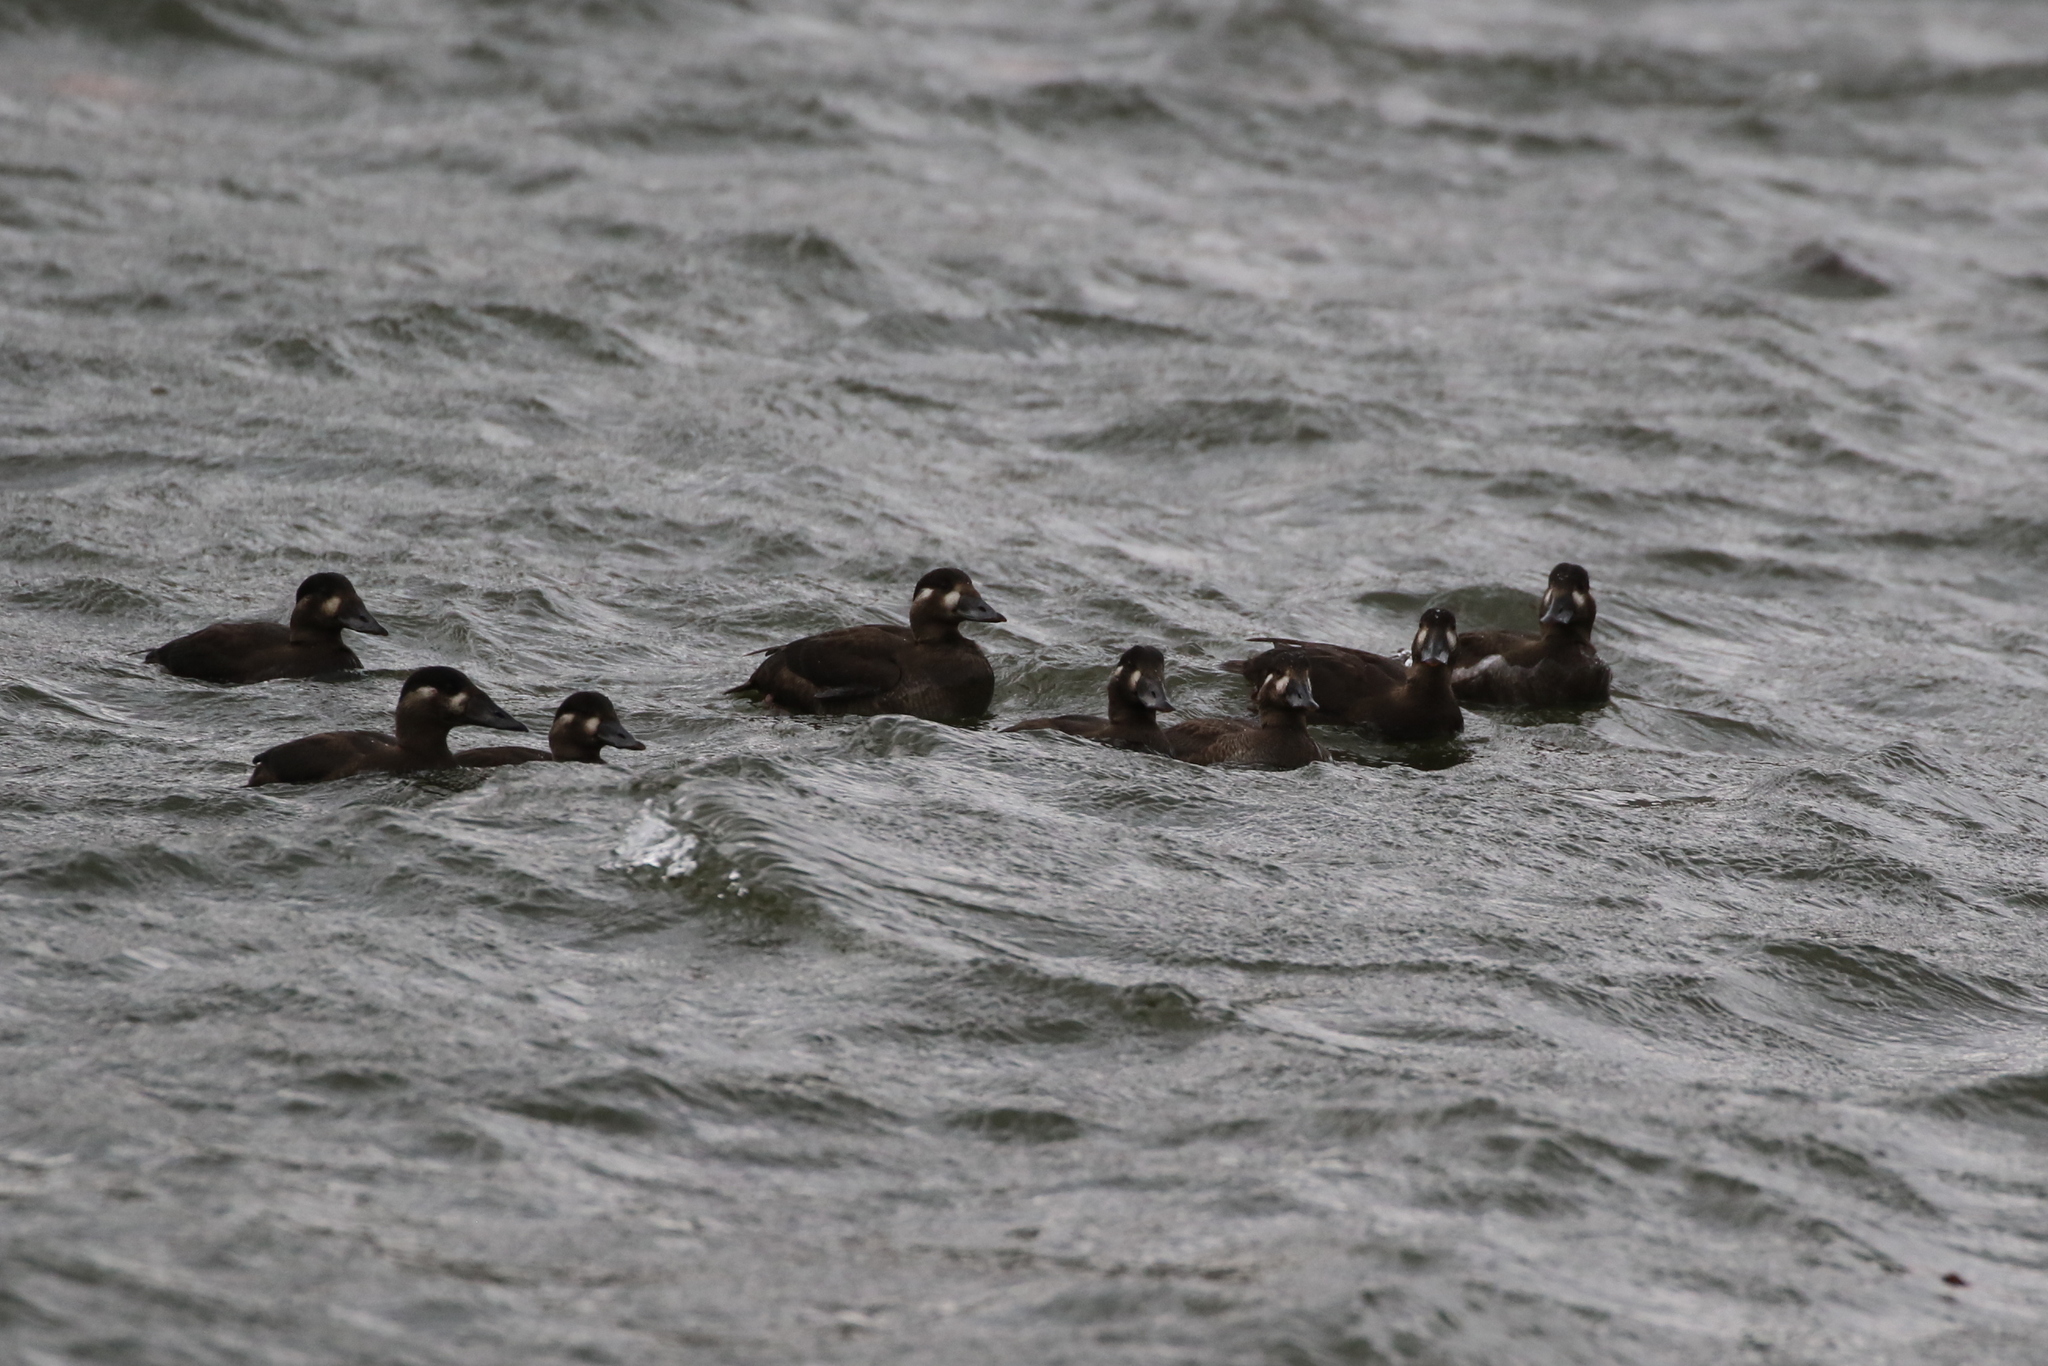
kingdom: Animalia
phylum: Chordata
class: Aves
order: Anseriformes
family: Anatidae
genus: Melanitta
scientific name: Melanitta perspicillata
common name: Surf scoter
